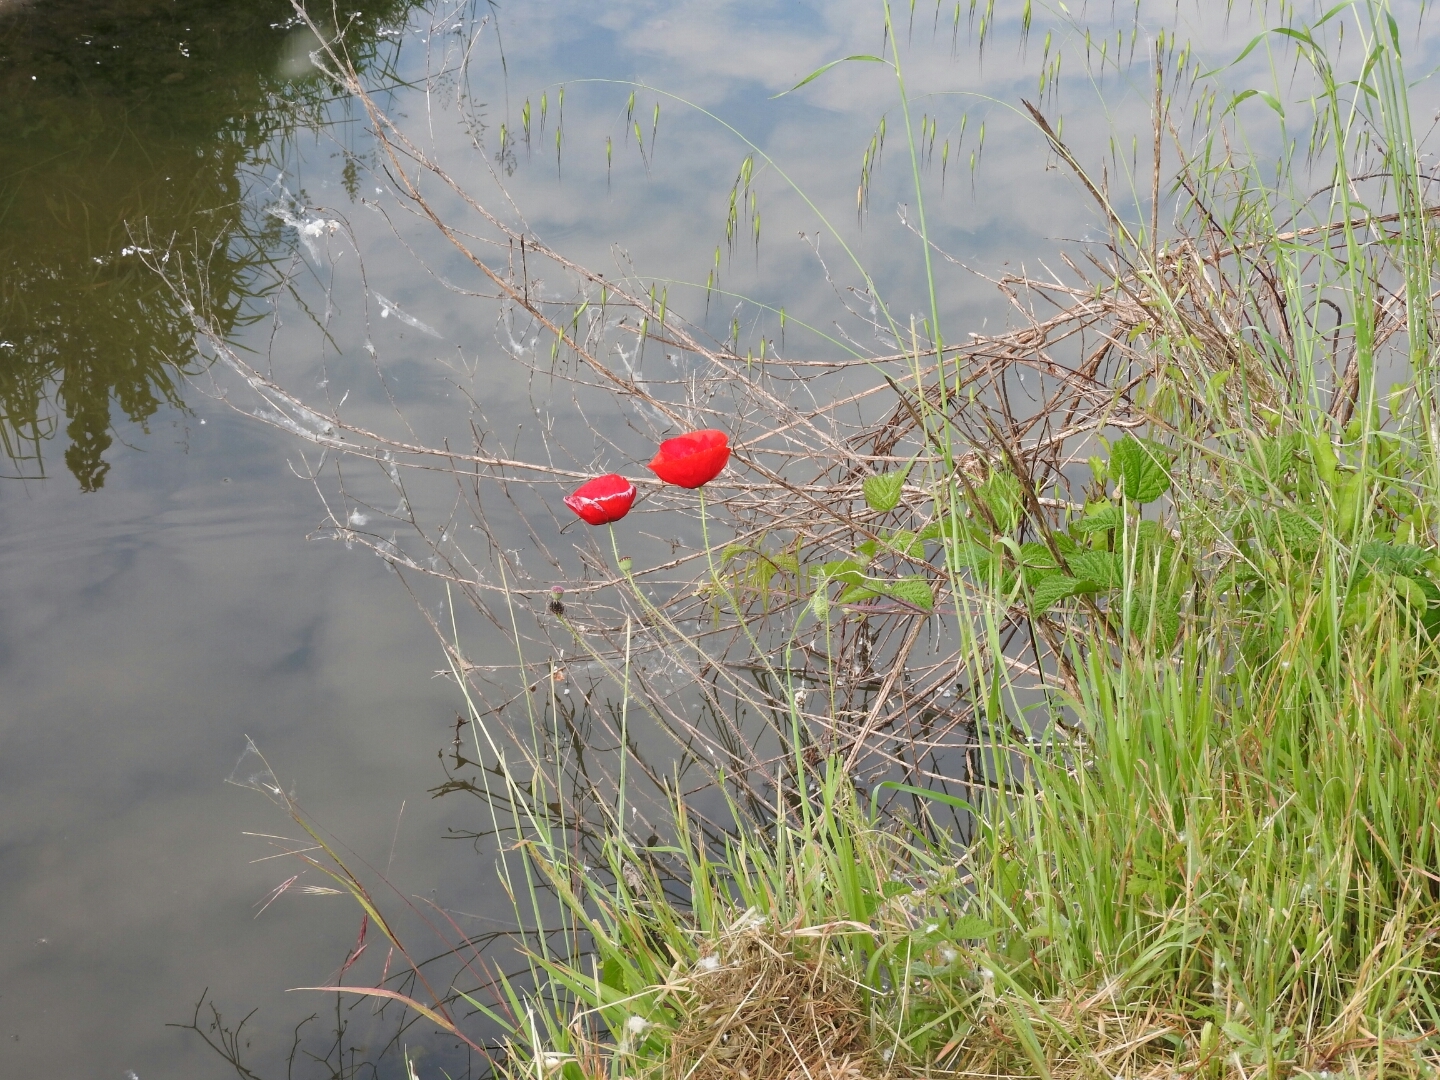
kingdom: Plantae
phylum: Tracheophyta
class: Magnoliopsida
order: Ranunculales
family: Papaveraceae
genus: Papaver
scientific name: Papaver rhoeas
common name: Corn poppy
